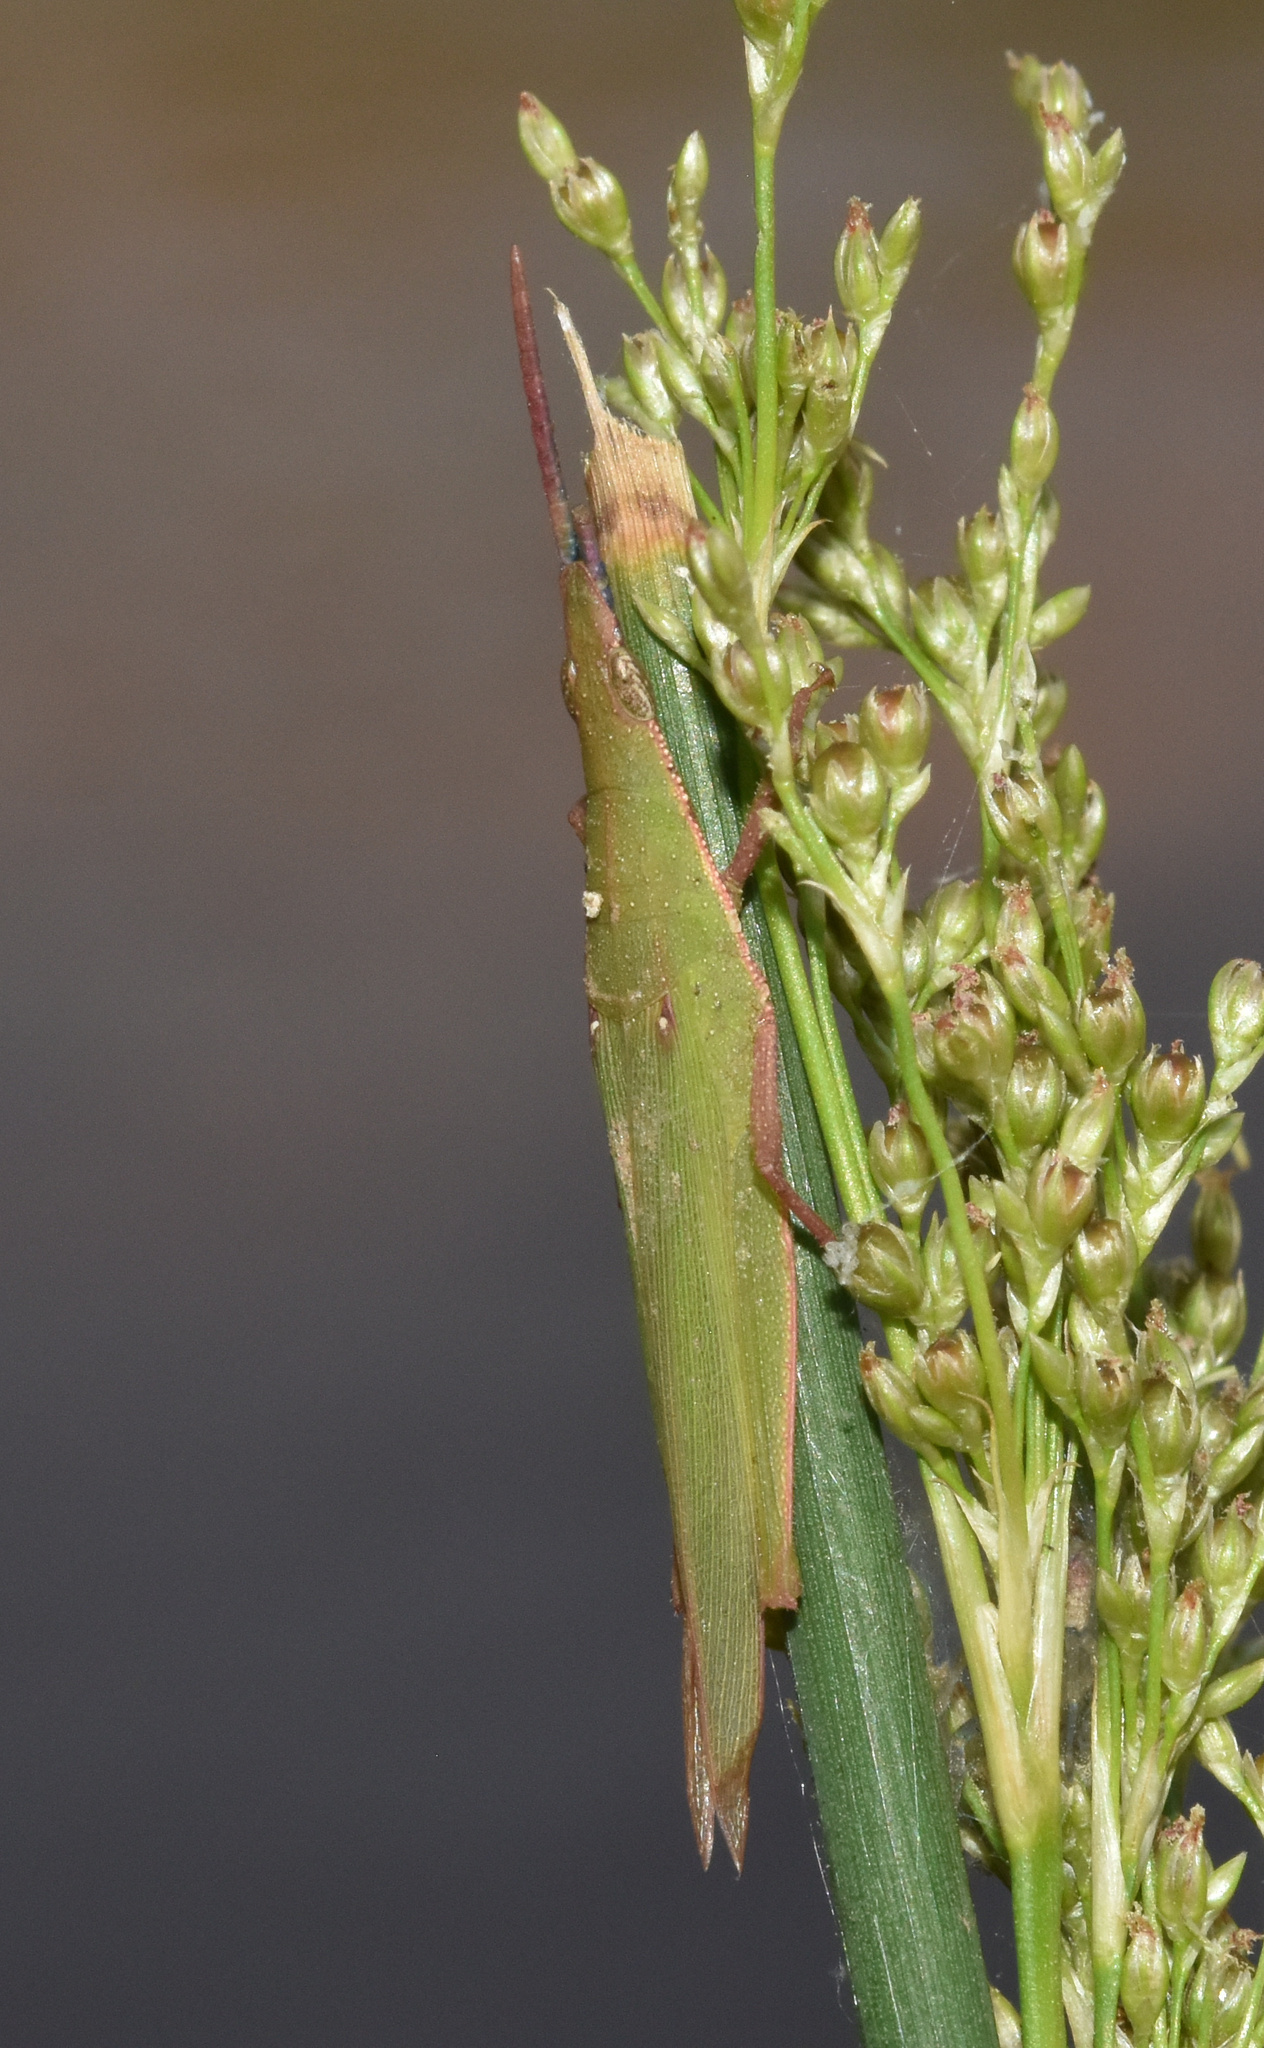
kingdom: Animalia
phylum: Arthropoda
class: Insecta
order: Orthoptera
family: Pyrgomorphidae
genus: Atractomorpha
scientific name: Atractomorpha acutipennis
